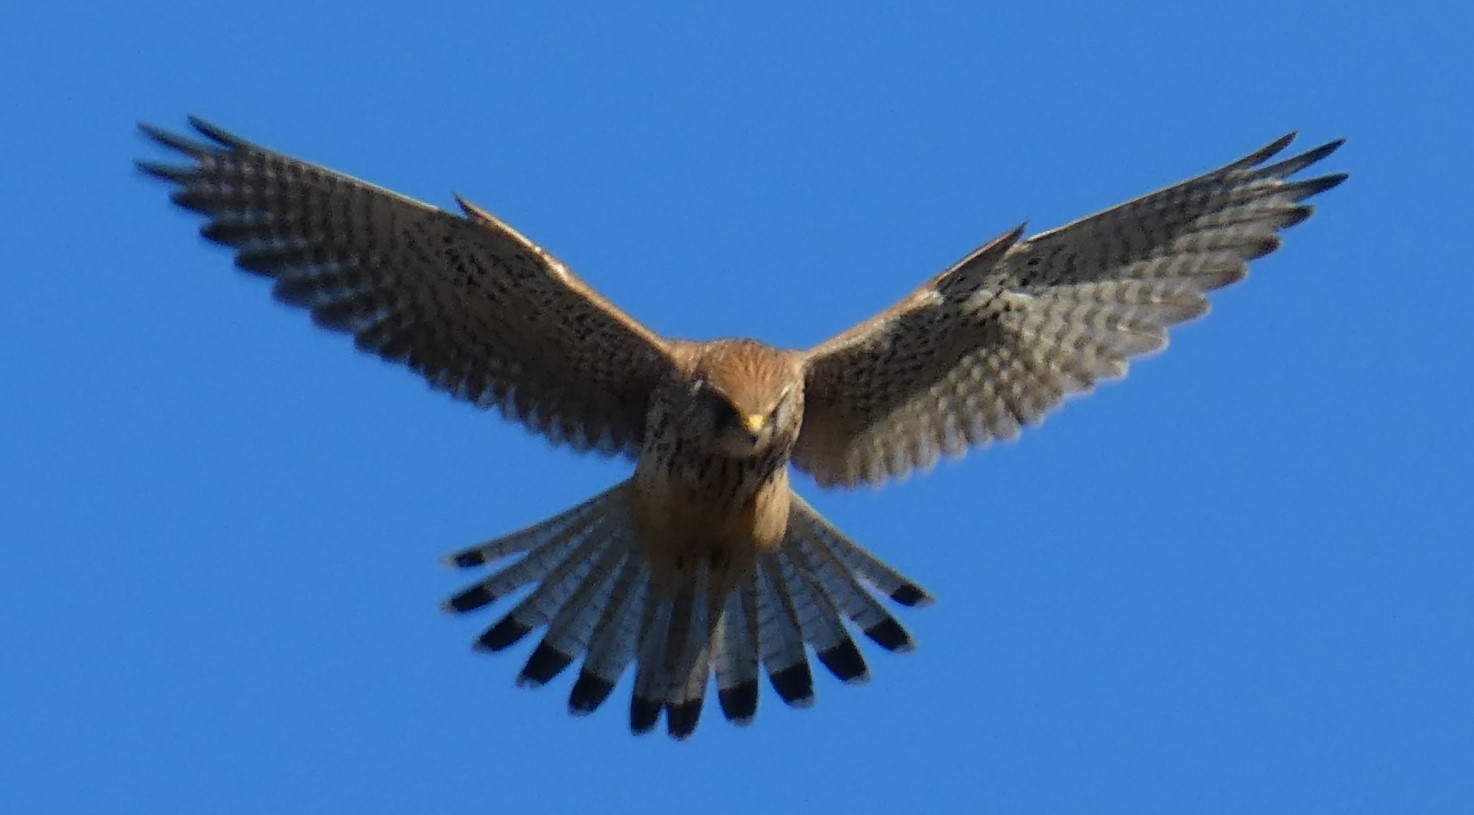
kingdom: Animalia
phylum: Chordata
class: Aves
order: Falconiformes
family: Falconidae
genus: Falco
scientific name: Falco tinnunculus
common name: Common kestrel
